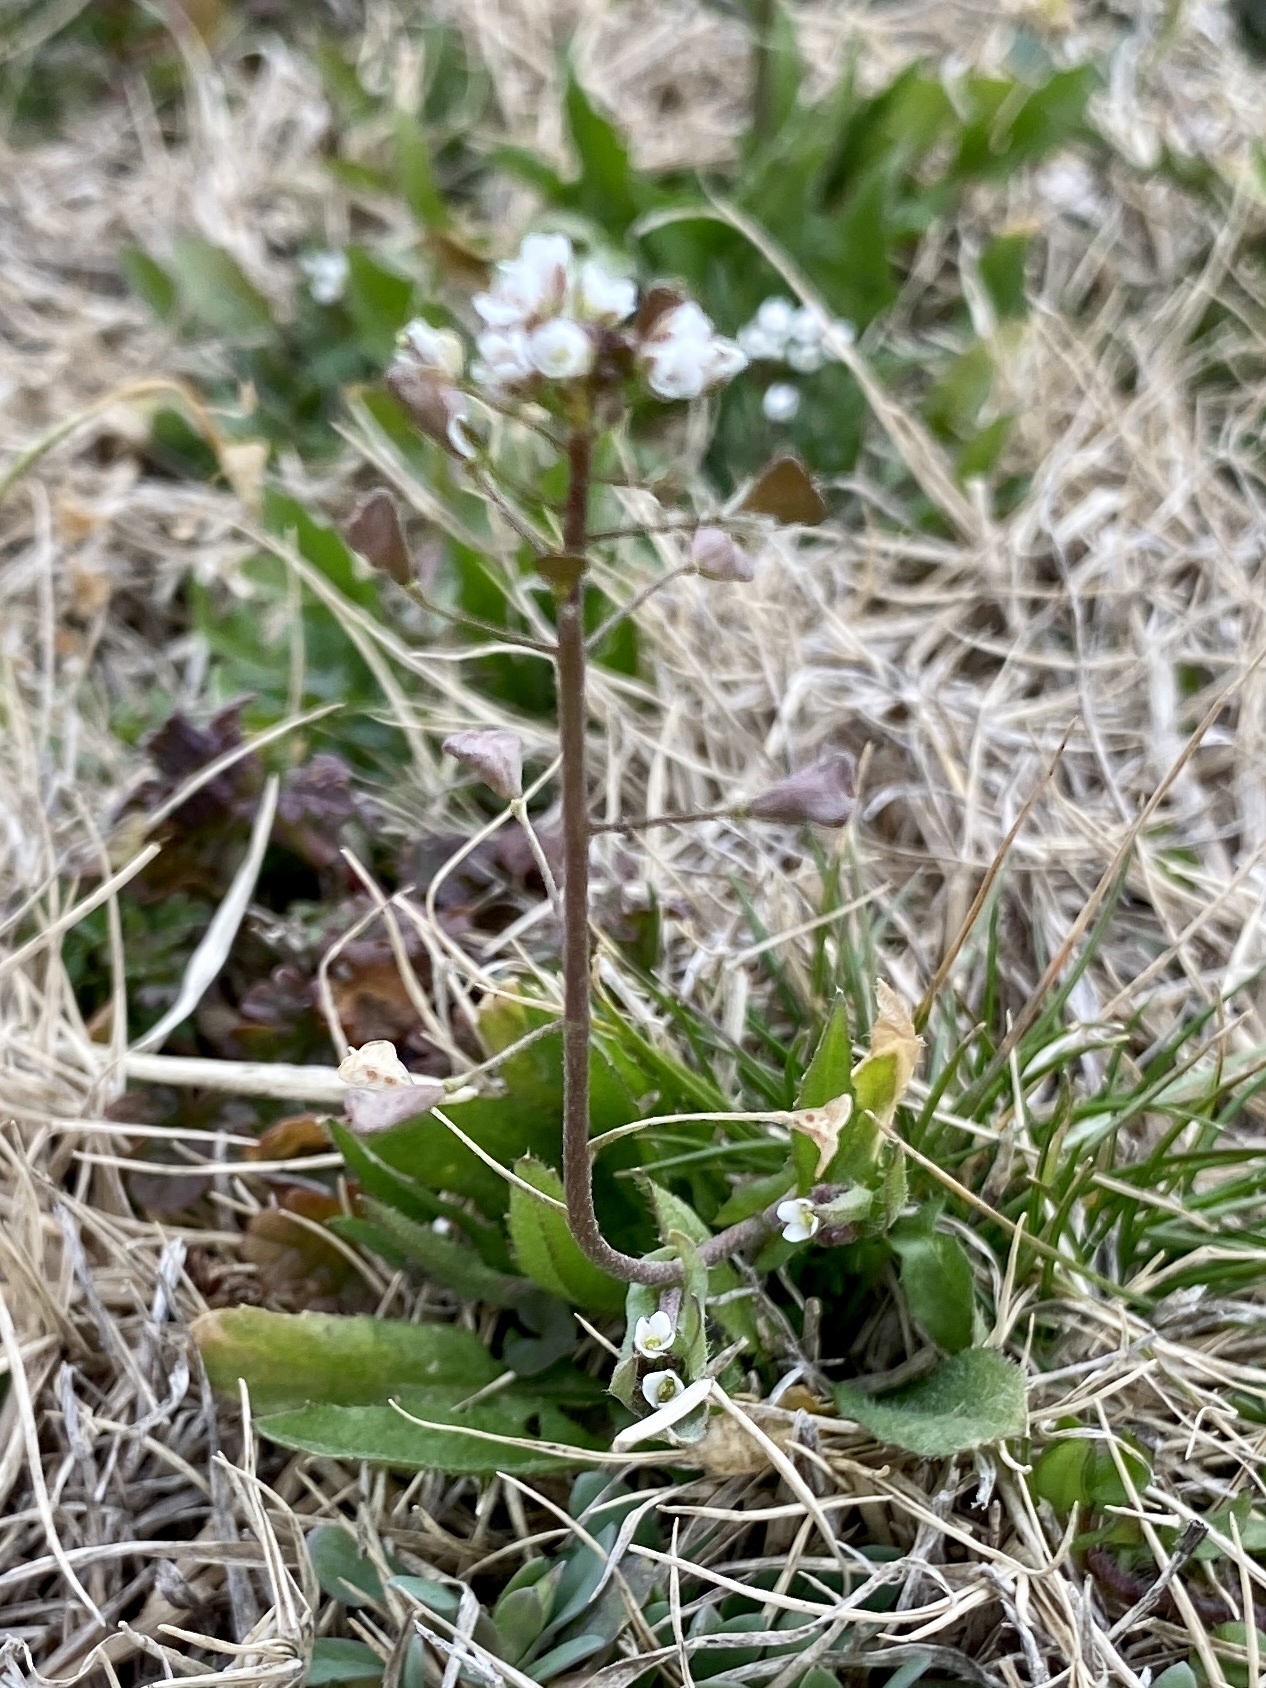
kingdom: Plantae
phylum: Tracheophyta
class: Magnoliopsida
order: Brassicales
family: Brassicaceae
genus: Capsella
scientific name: Capsella bursa-pastoris
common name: Shepherd's purse
